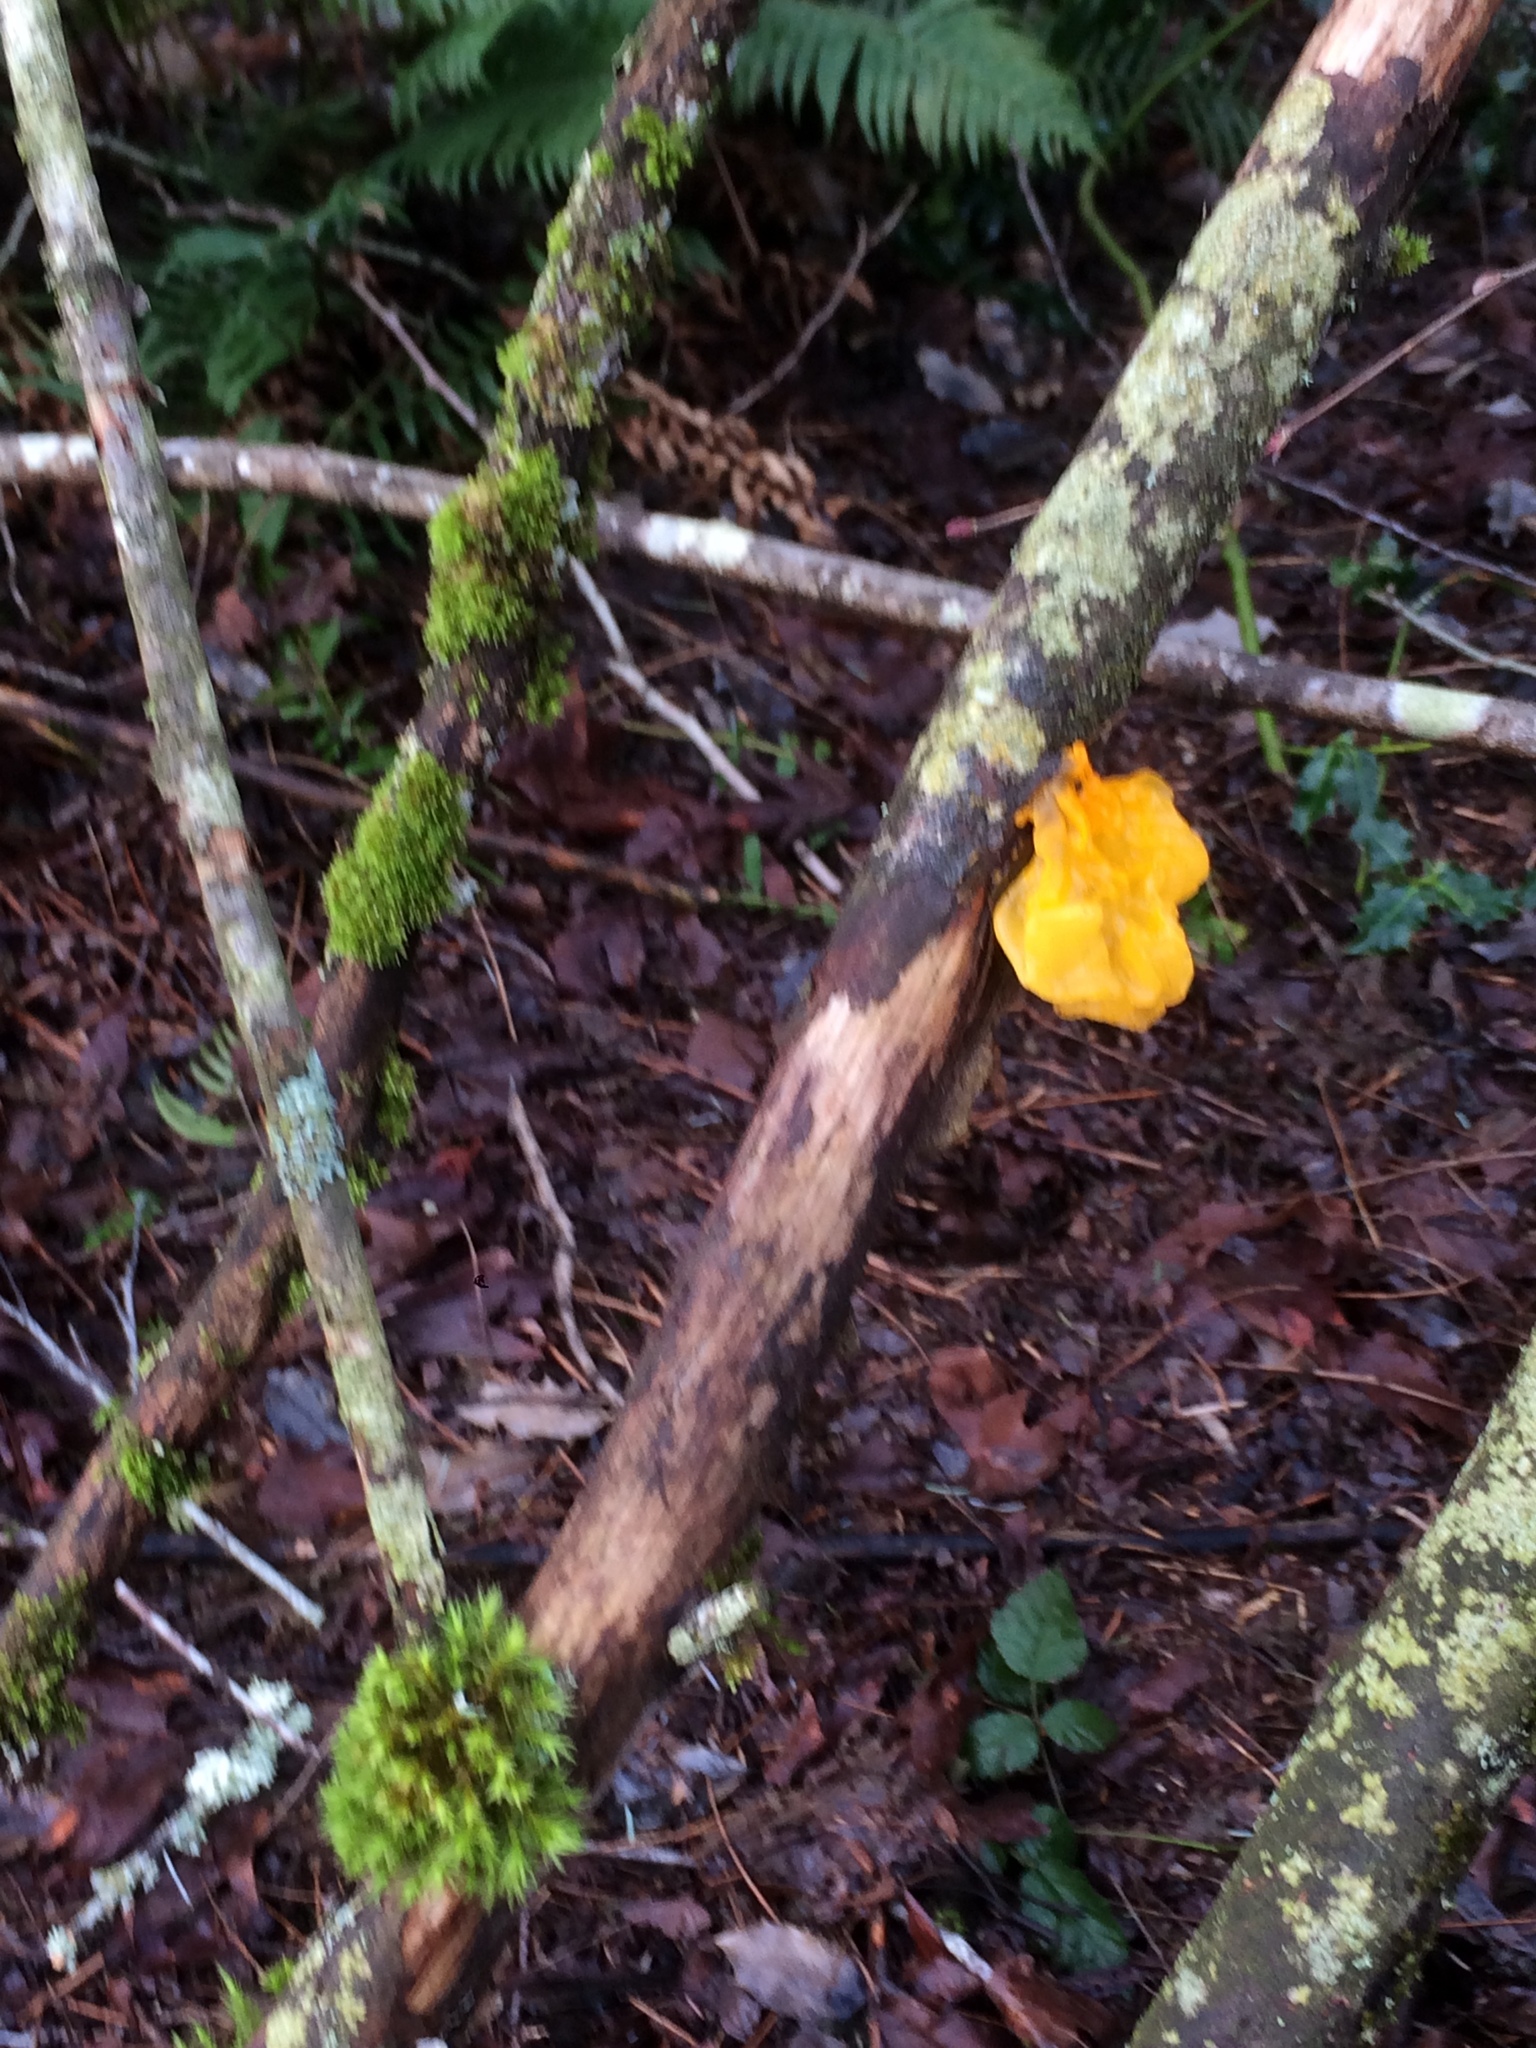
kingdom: Fungi
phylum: Basidiomycota
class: Tremellomycetes
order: Tremellales
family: Tremellaceae
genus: Tremella
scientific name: Tremella mesenterica
